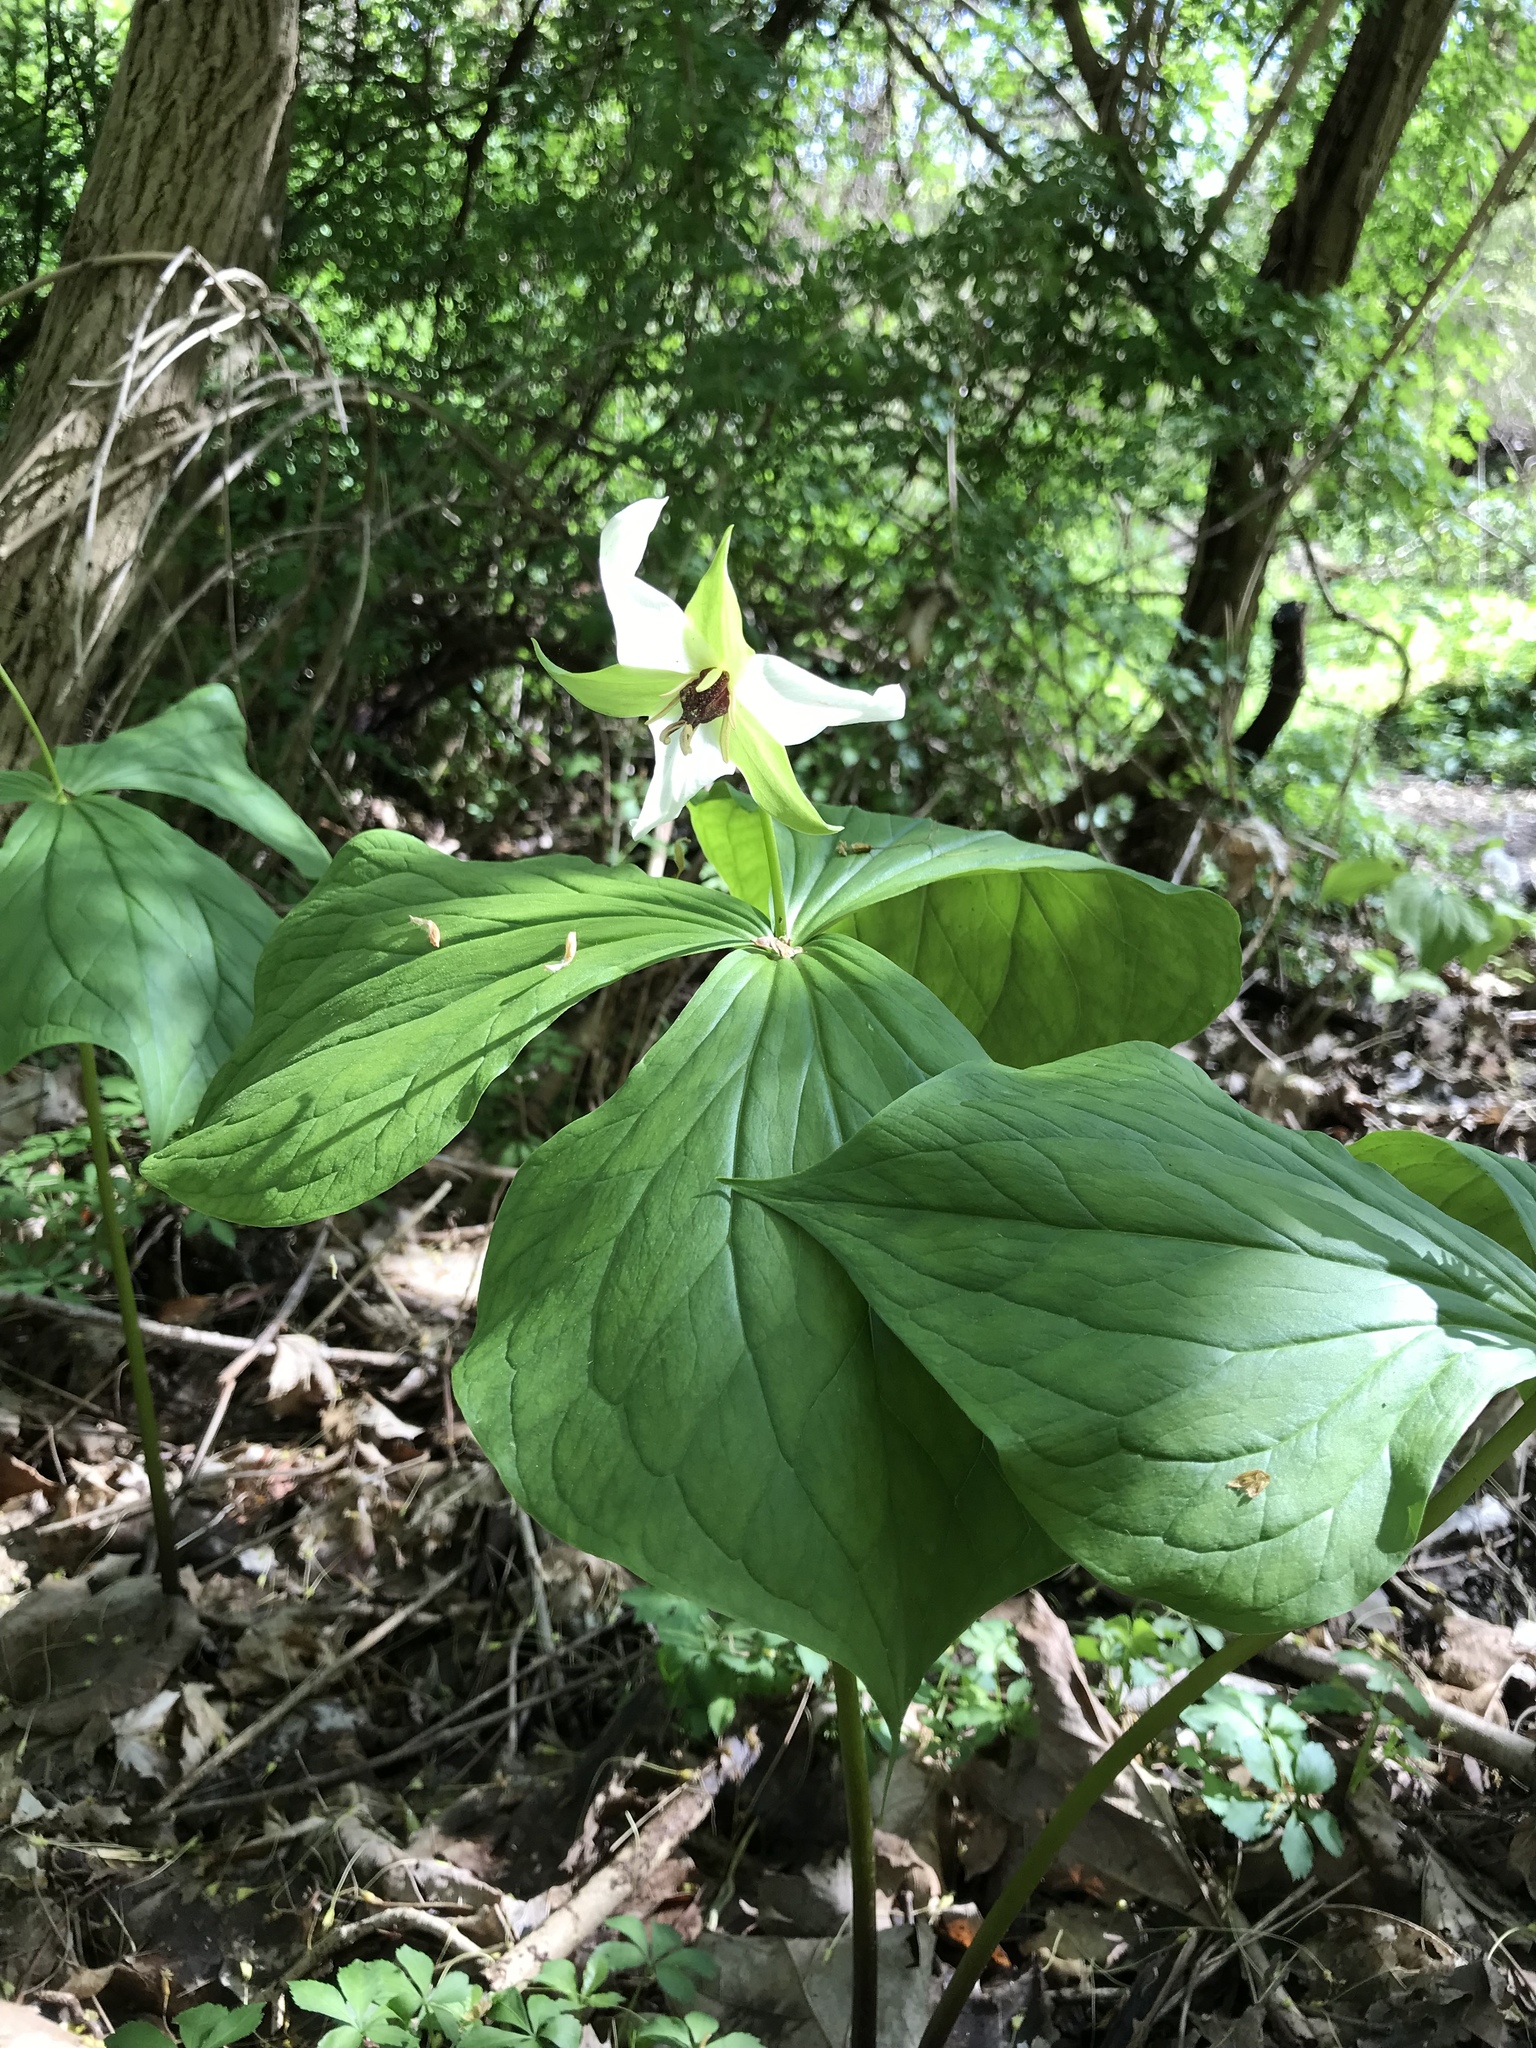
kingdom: Plantae
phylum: Tracheophyta
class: Liliopsida
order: Liliales
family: Melanthiaceae
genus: Trillium
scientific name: Trillium erectum
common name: Purple trillium
